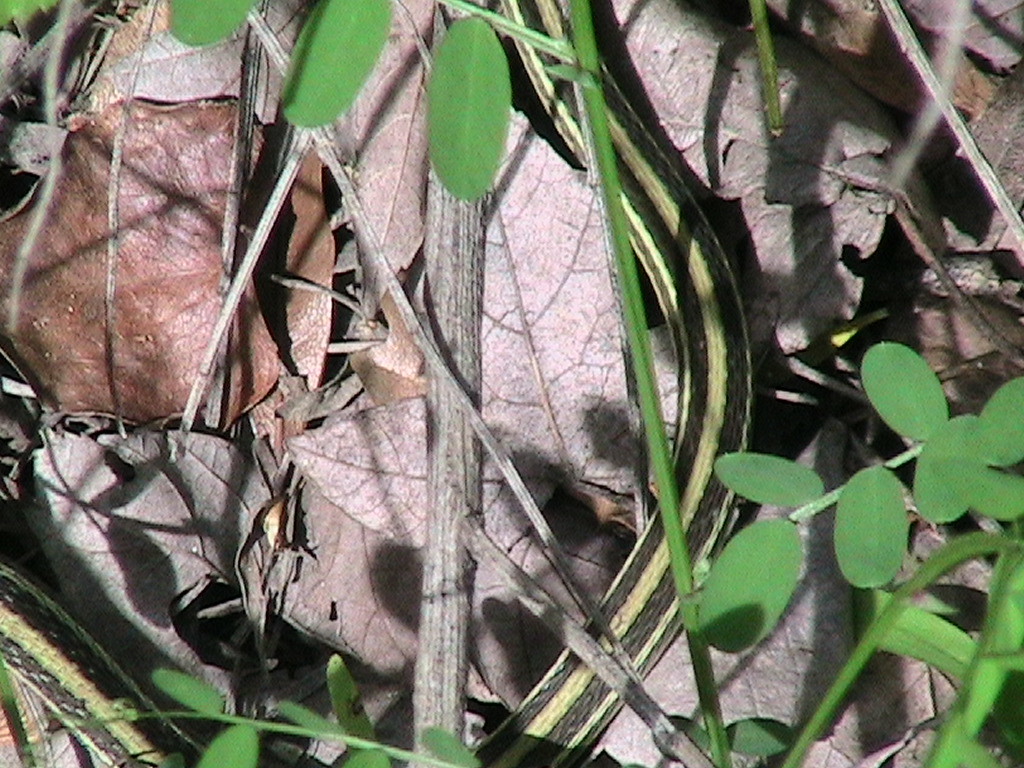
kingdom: Animalia
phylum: Chordata
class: Squamata
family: Colubridae
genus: Thamnophis
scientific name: Thamnophis proximus
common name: Western ribbon snake
